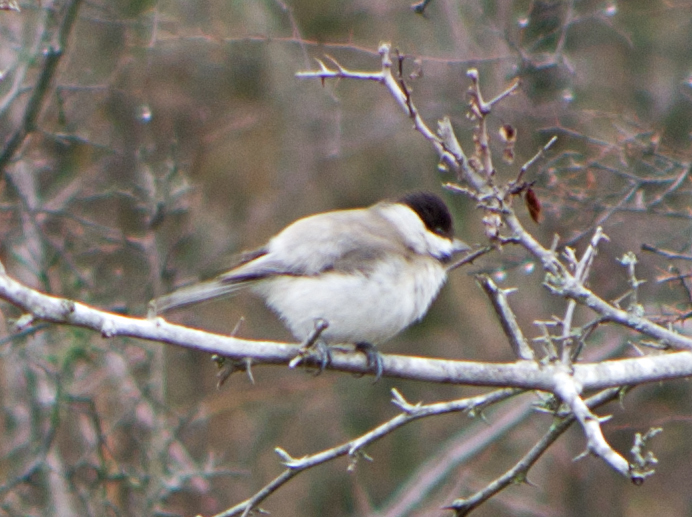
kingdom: Animalia
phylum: Chordata
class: Aves
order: Passeriformes
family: Paridae
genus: Poecile
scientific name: Poecile lugubris
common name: Sombre tit
